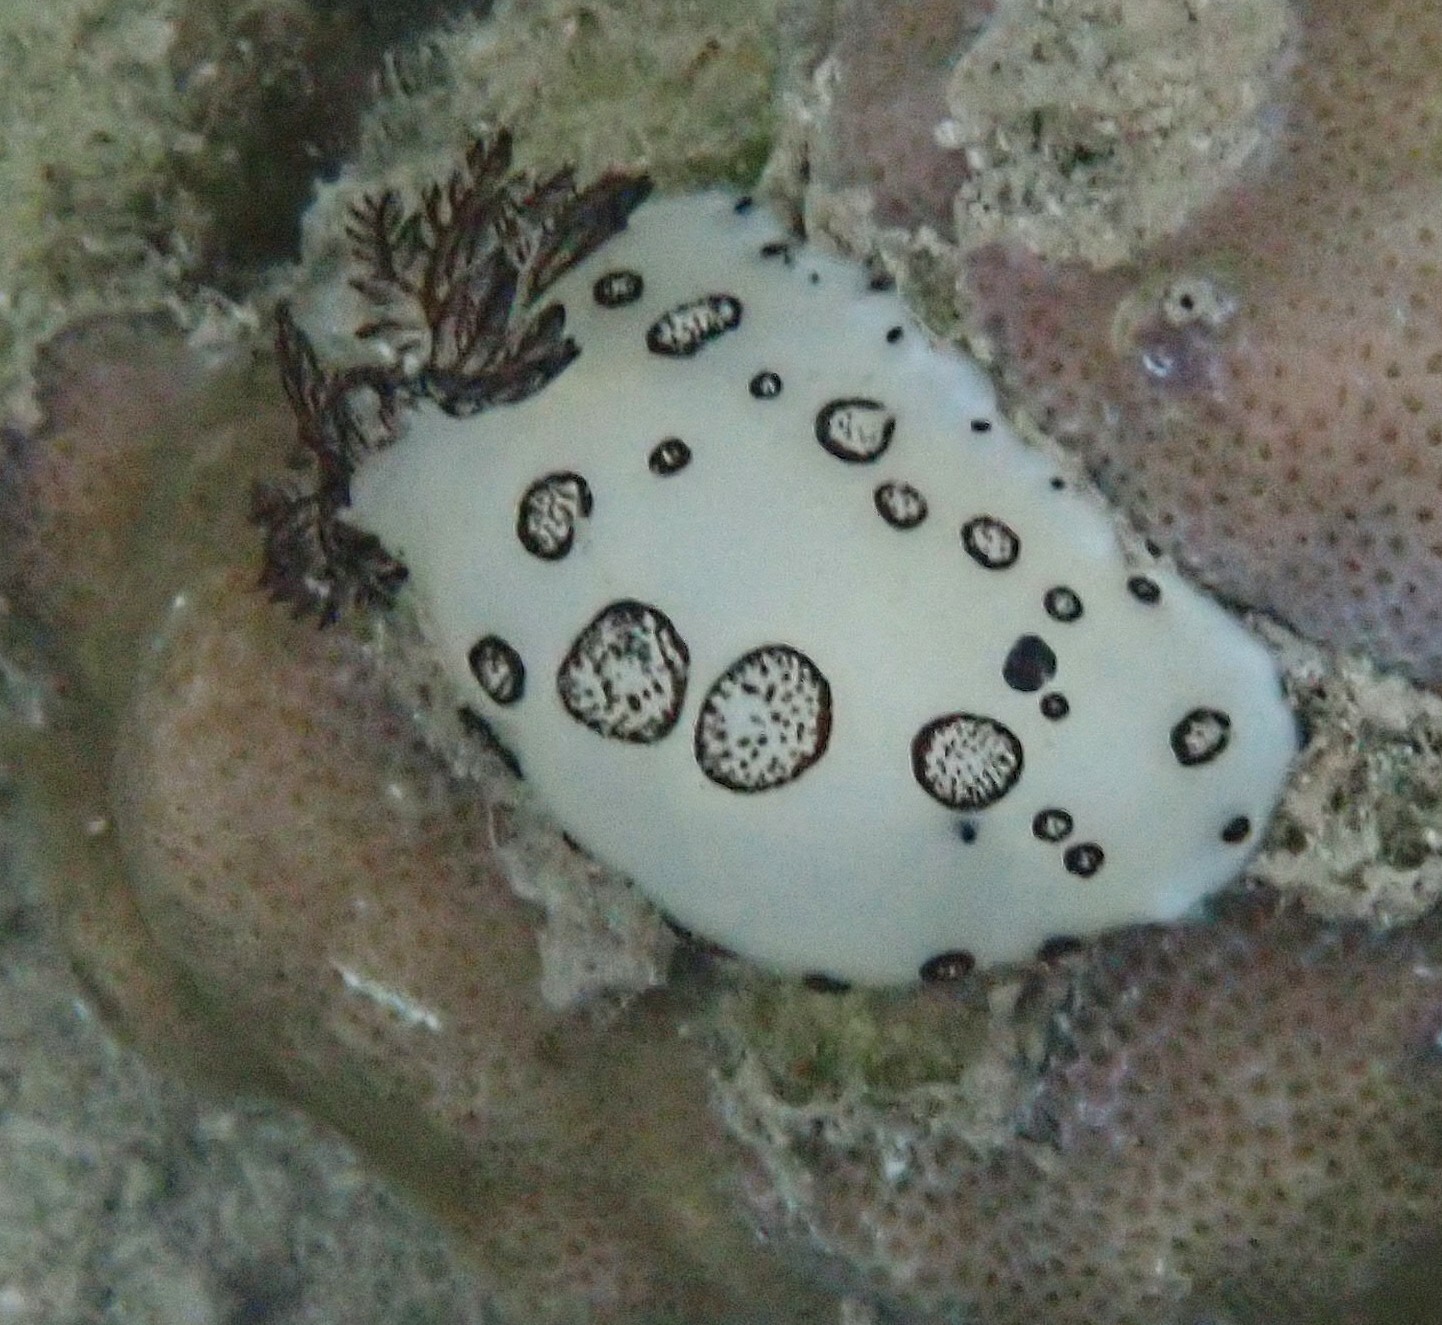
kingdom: Animalia
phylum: Mollusca
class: Gastropoda
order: Nudibranchia
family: Discodorididae
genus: Jorunna
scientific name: Jorunna funebris
